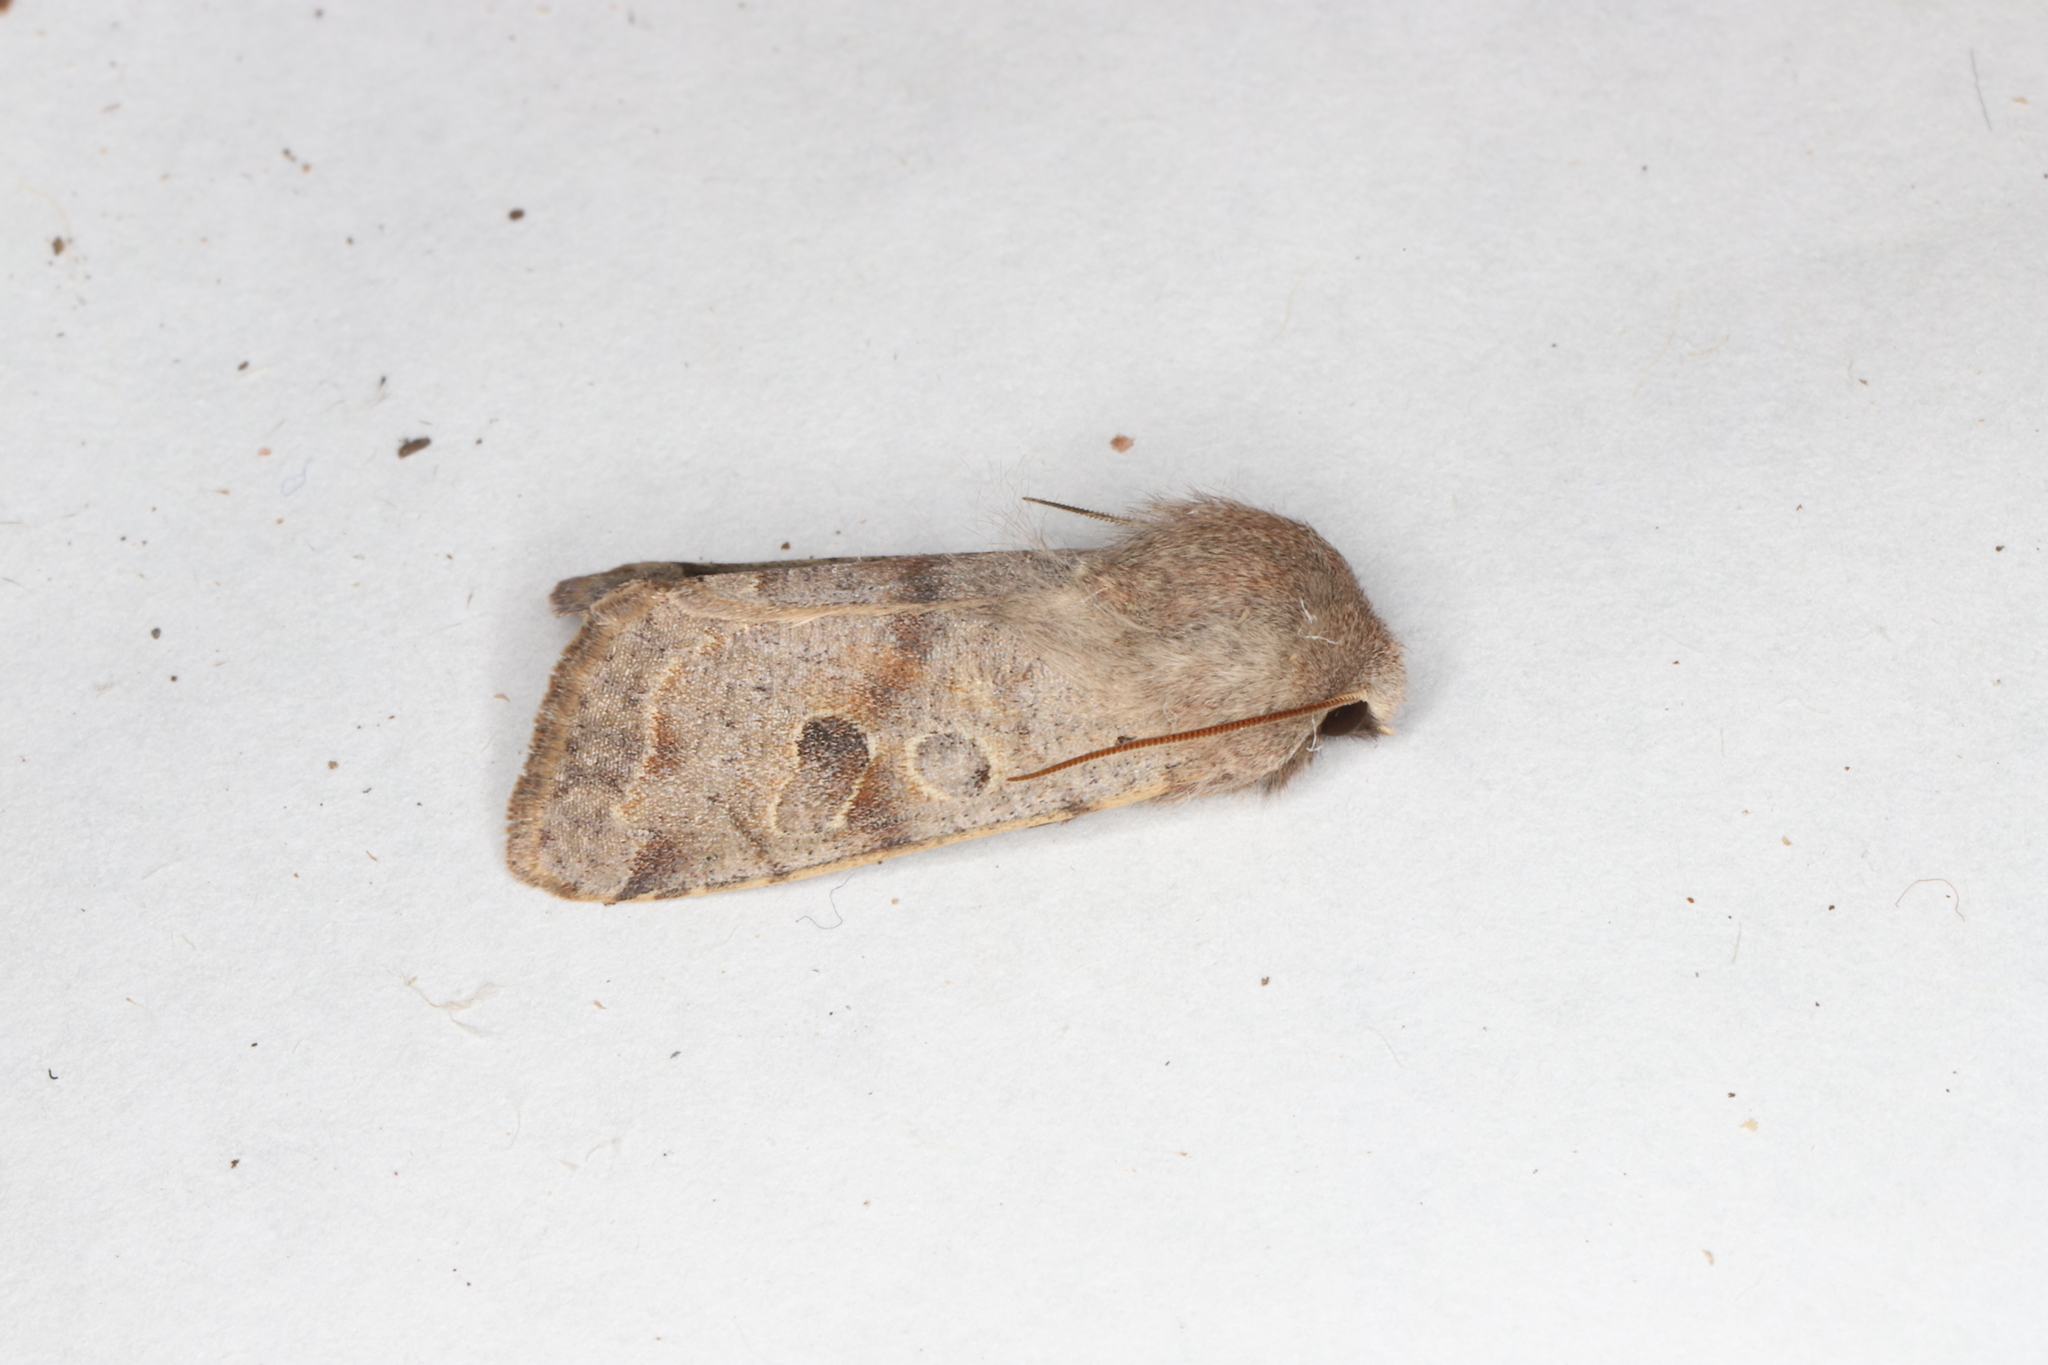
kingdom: Animalia
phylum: Arthropoda
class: Insecta
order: Lepidoptera
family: Noctuidae
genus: Orthosia
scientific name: Orthosia hibisci
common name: Green fruitworm
